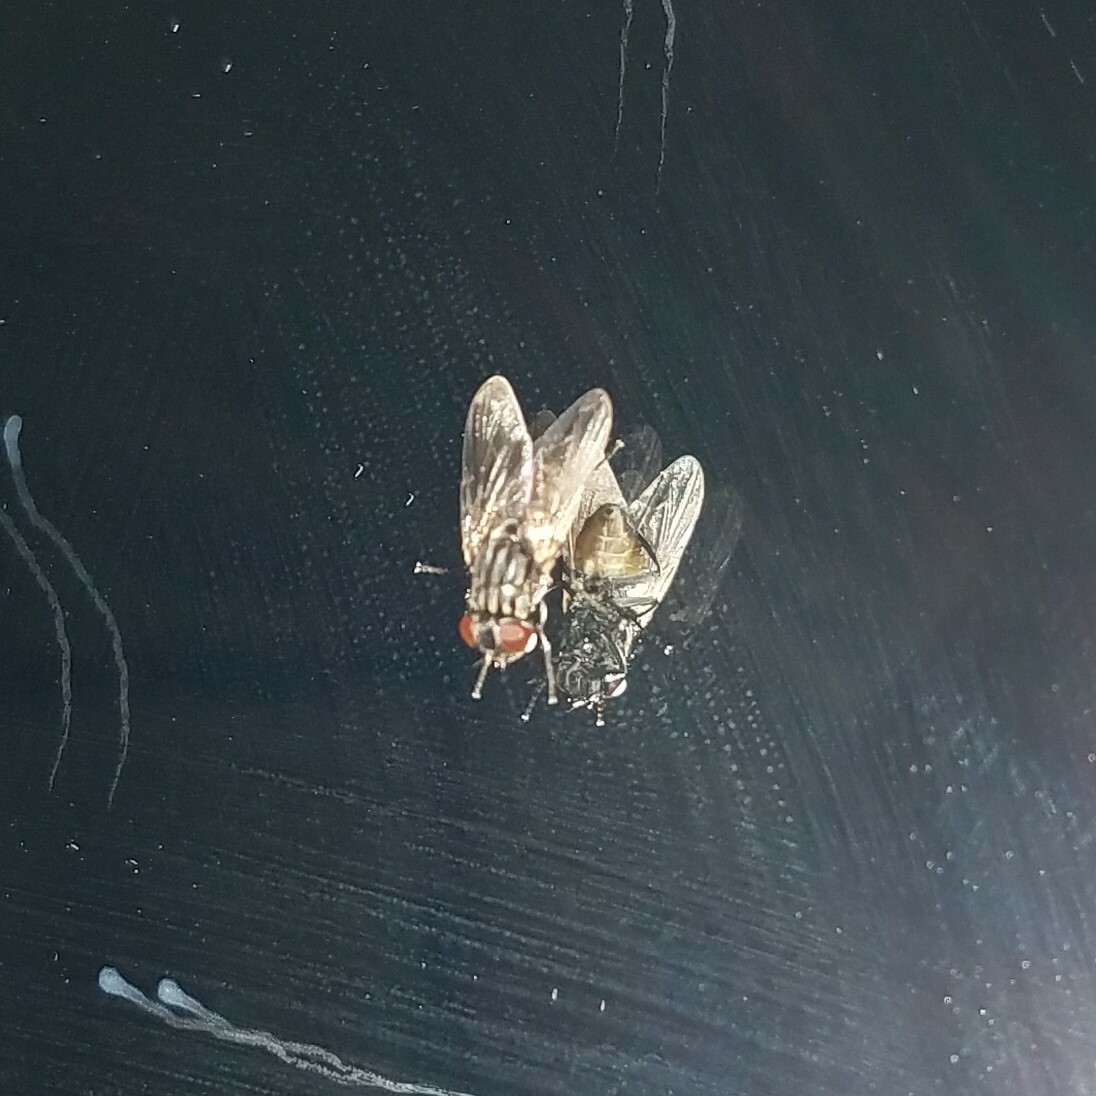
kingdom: Animalia
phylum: Arthropoda
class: Insecta
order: Diptera
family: Muscidae
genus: Musca
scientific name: Musca domestica
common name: House fly
